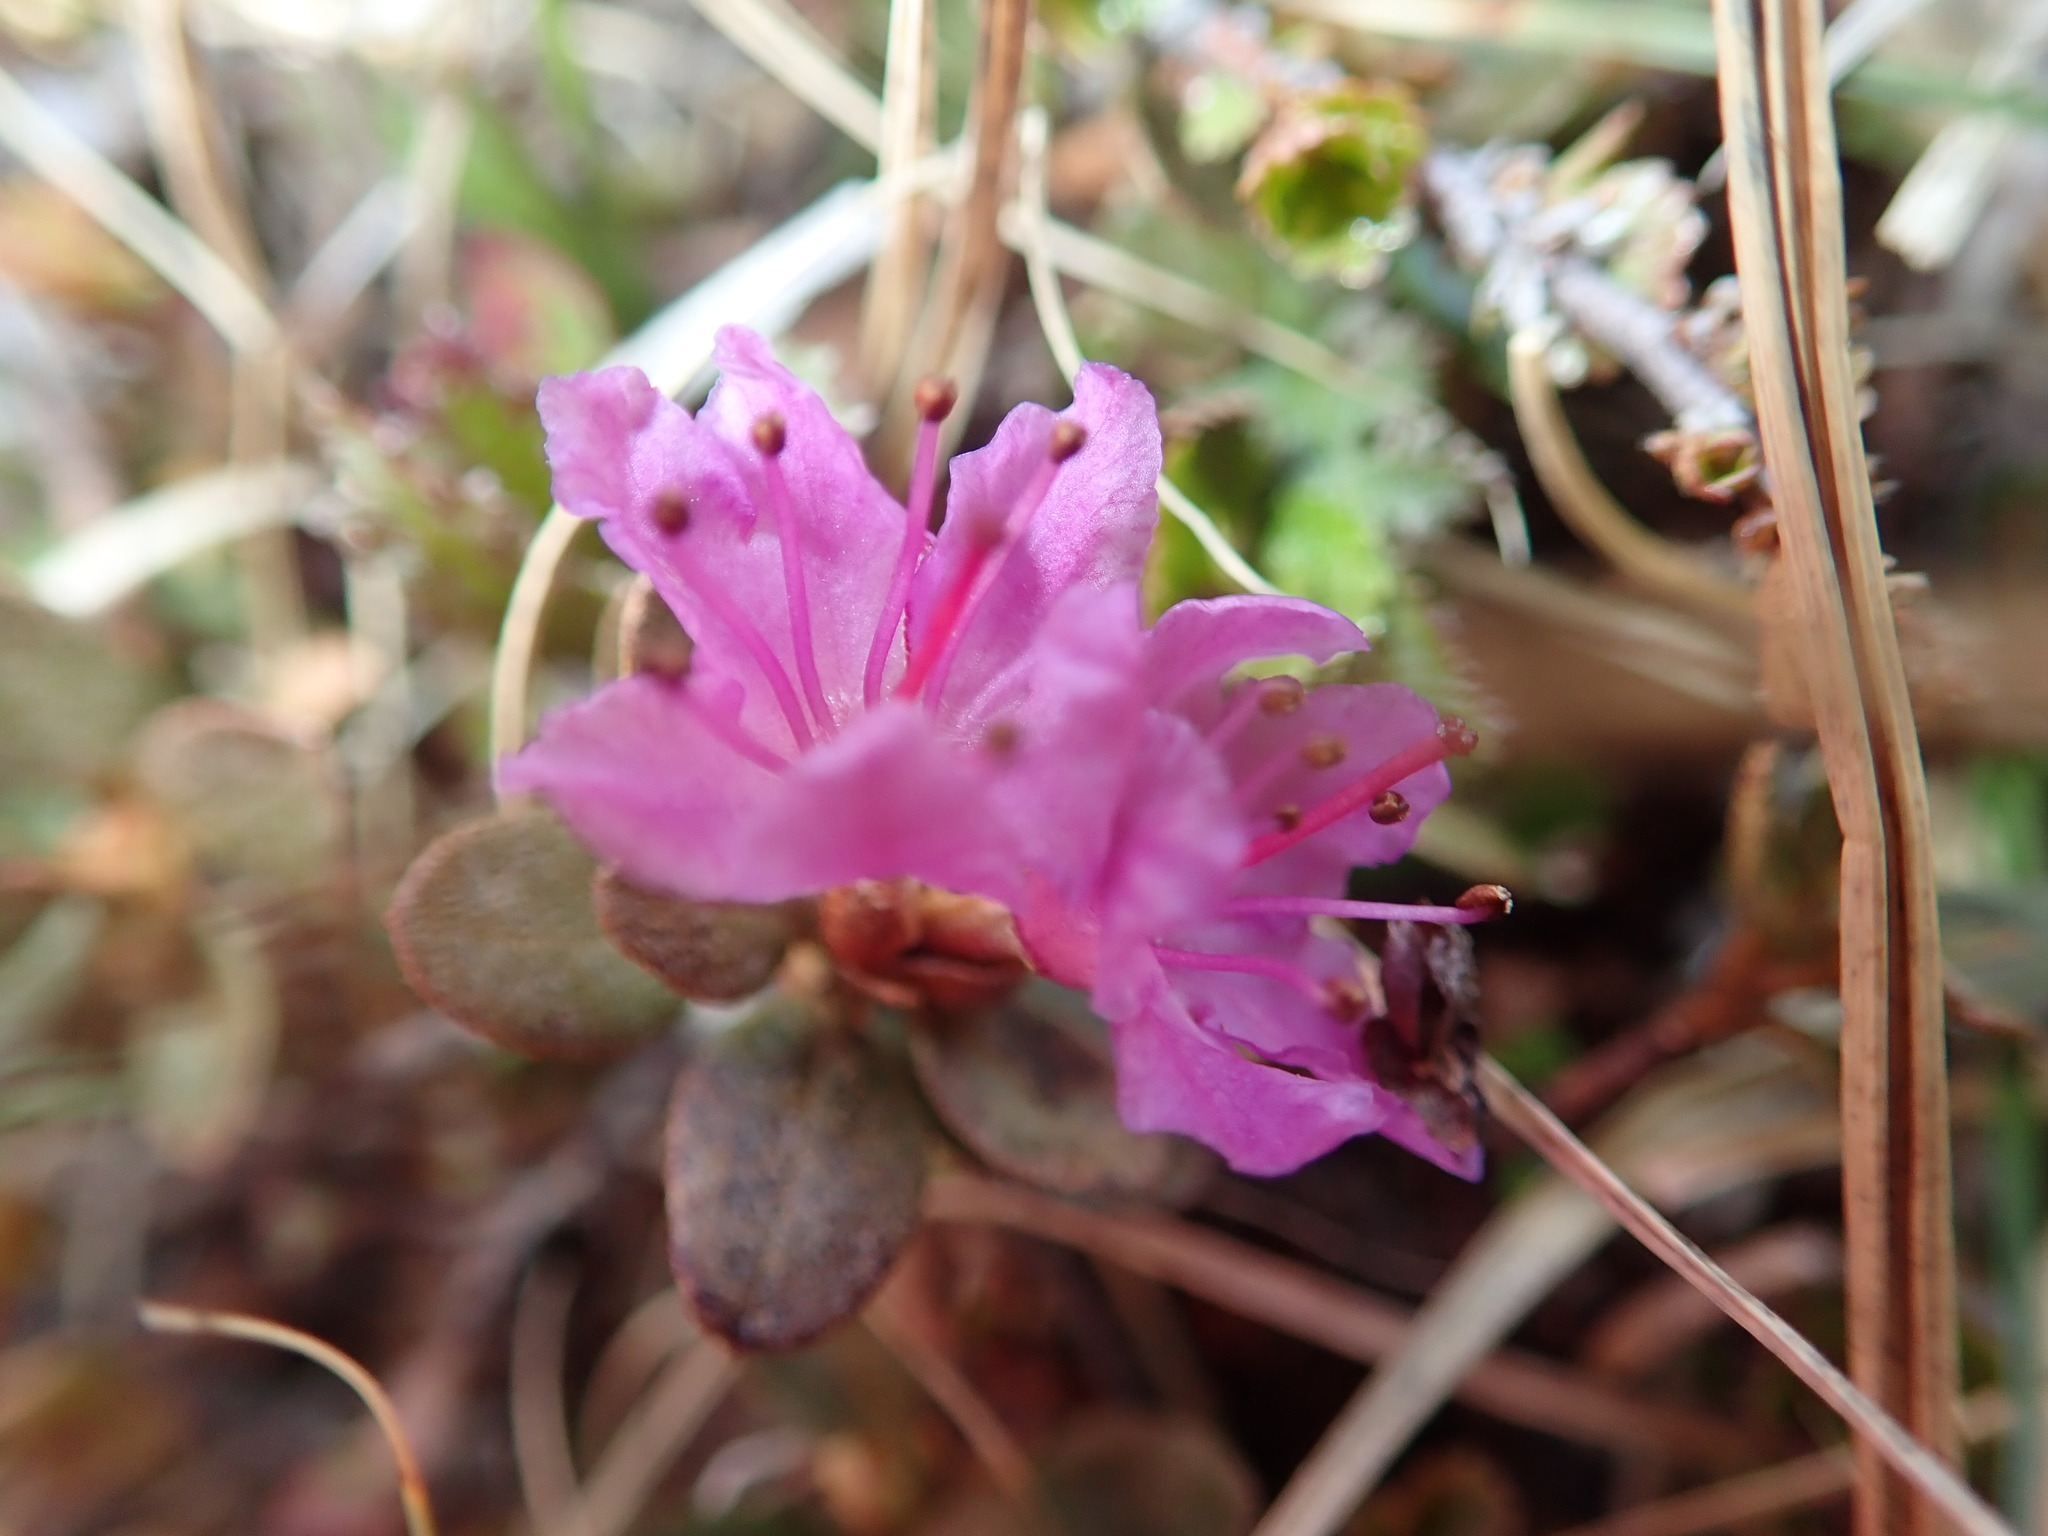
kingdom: Plantae
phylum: Tracheophyta
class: Magnoliopsida
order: Ericales
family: Ericaceae
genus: Rhododendron
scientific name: Rhododendron lapponicum
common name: Lapland rhododendron
